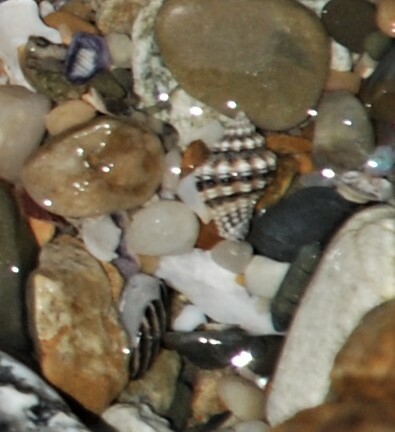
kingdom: Animalia
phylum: Mollusca
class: Gastropoda
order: Neogastropoda
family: Muricidae
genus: Drupella
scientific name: Drupella margariticola
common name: Shouldered castor bean
